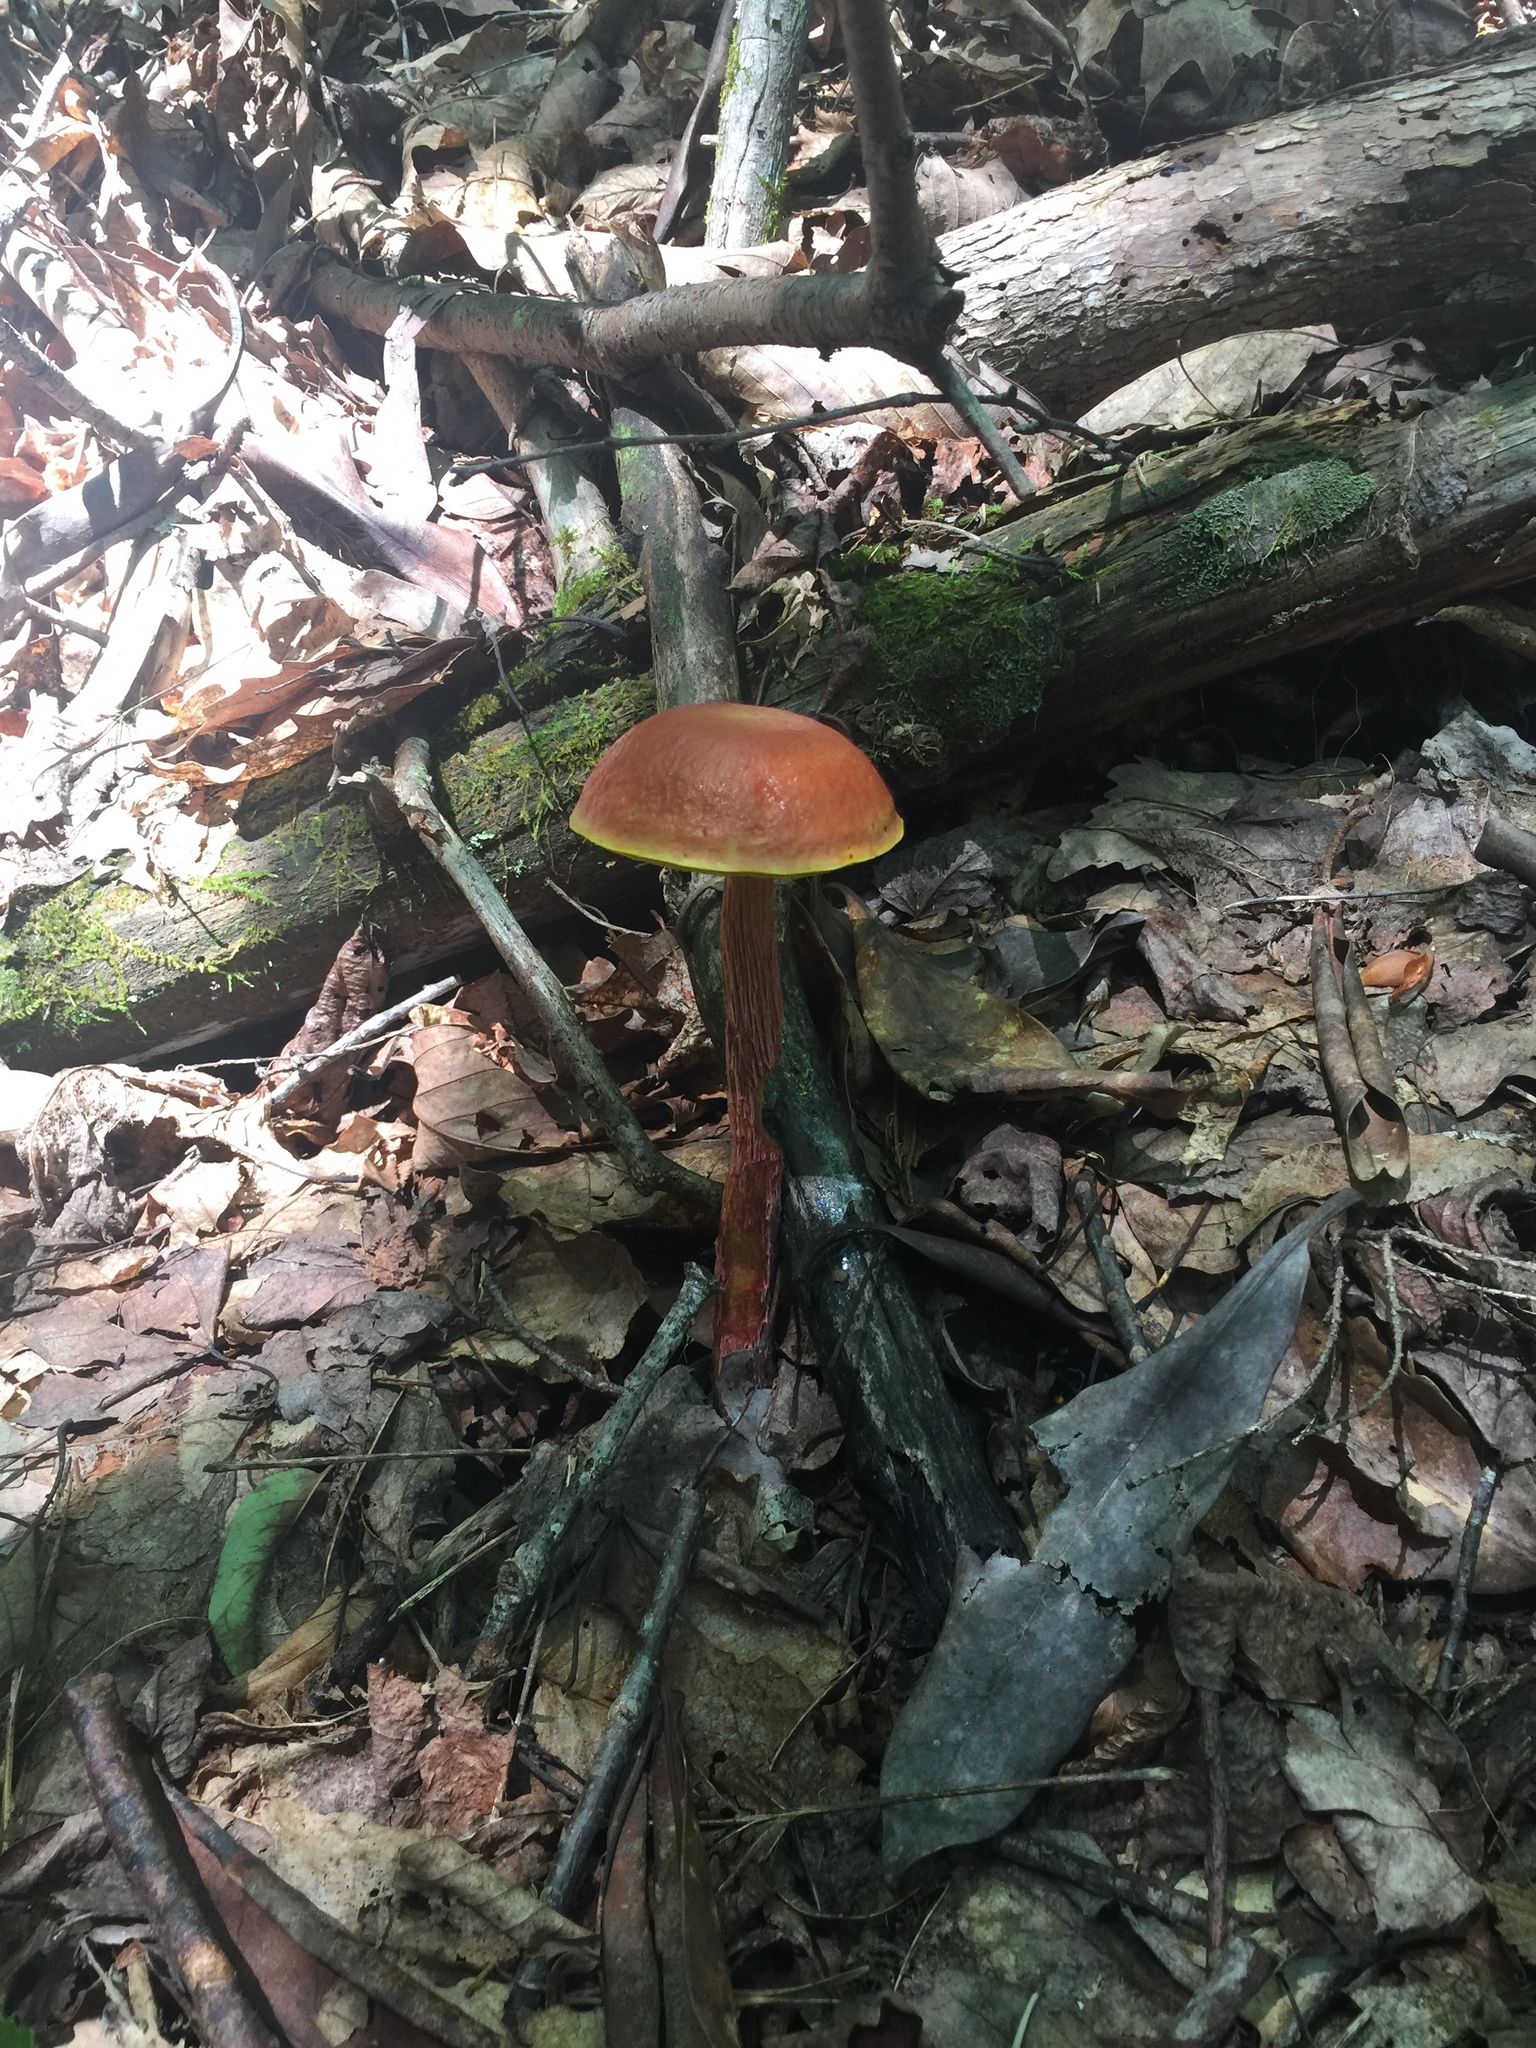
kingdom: Fungi
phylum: Basidiomycota
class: Agaricomycetes
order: Boletales
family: Boletaceae
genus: Aureoboletus
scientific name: Aureoboletus betula
